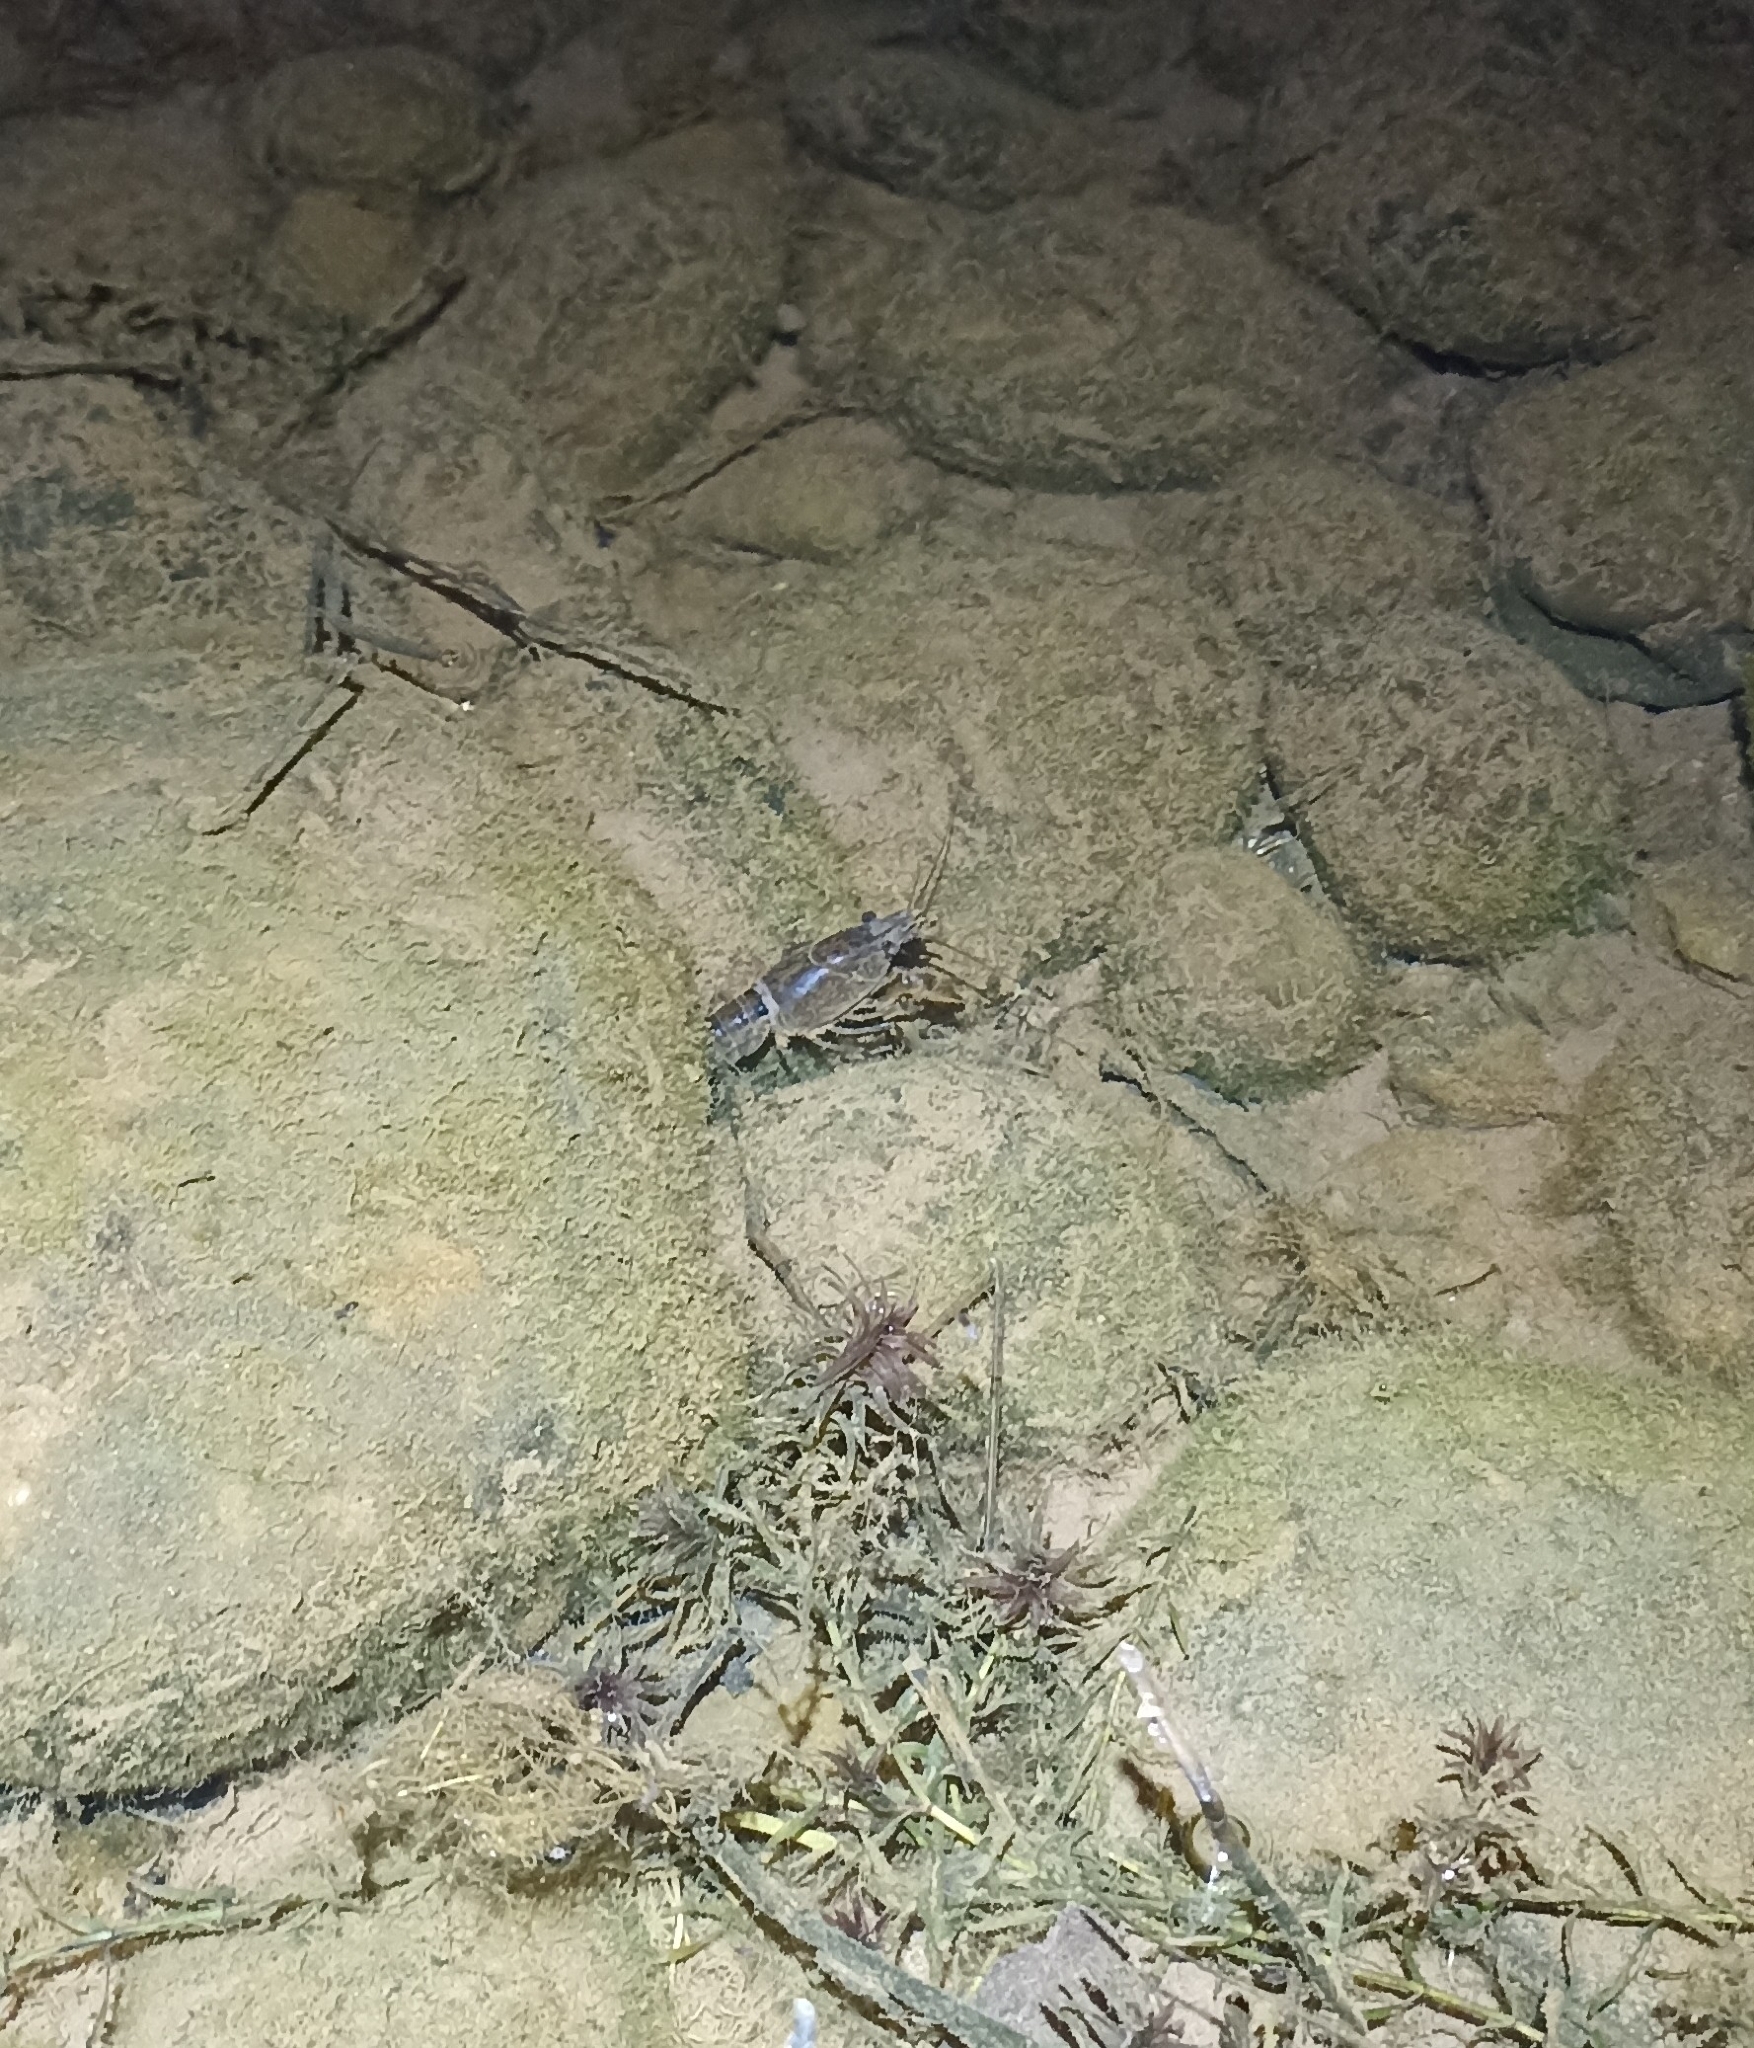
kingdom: Animalia
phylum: Arthropoda
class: Malacostraca
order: Decapoda
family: Cambaridae
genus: Procambarus
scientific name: Procambarus clarkii
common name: Red swamp crayfish
